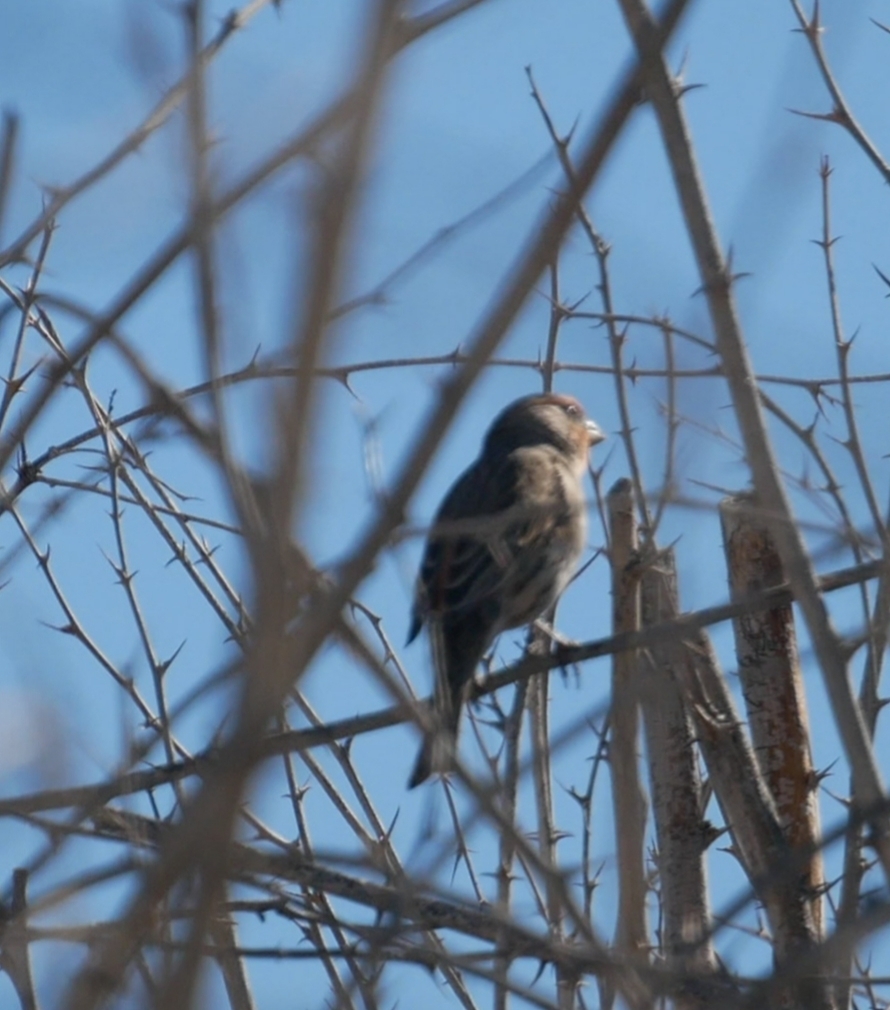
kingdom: Animalia
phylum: Chordata
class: Aves
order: Passeriformes
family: Fringillidae
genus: Haemorhous
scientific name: Haemorhous mexicanus
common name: House finch
